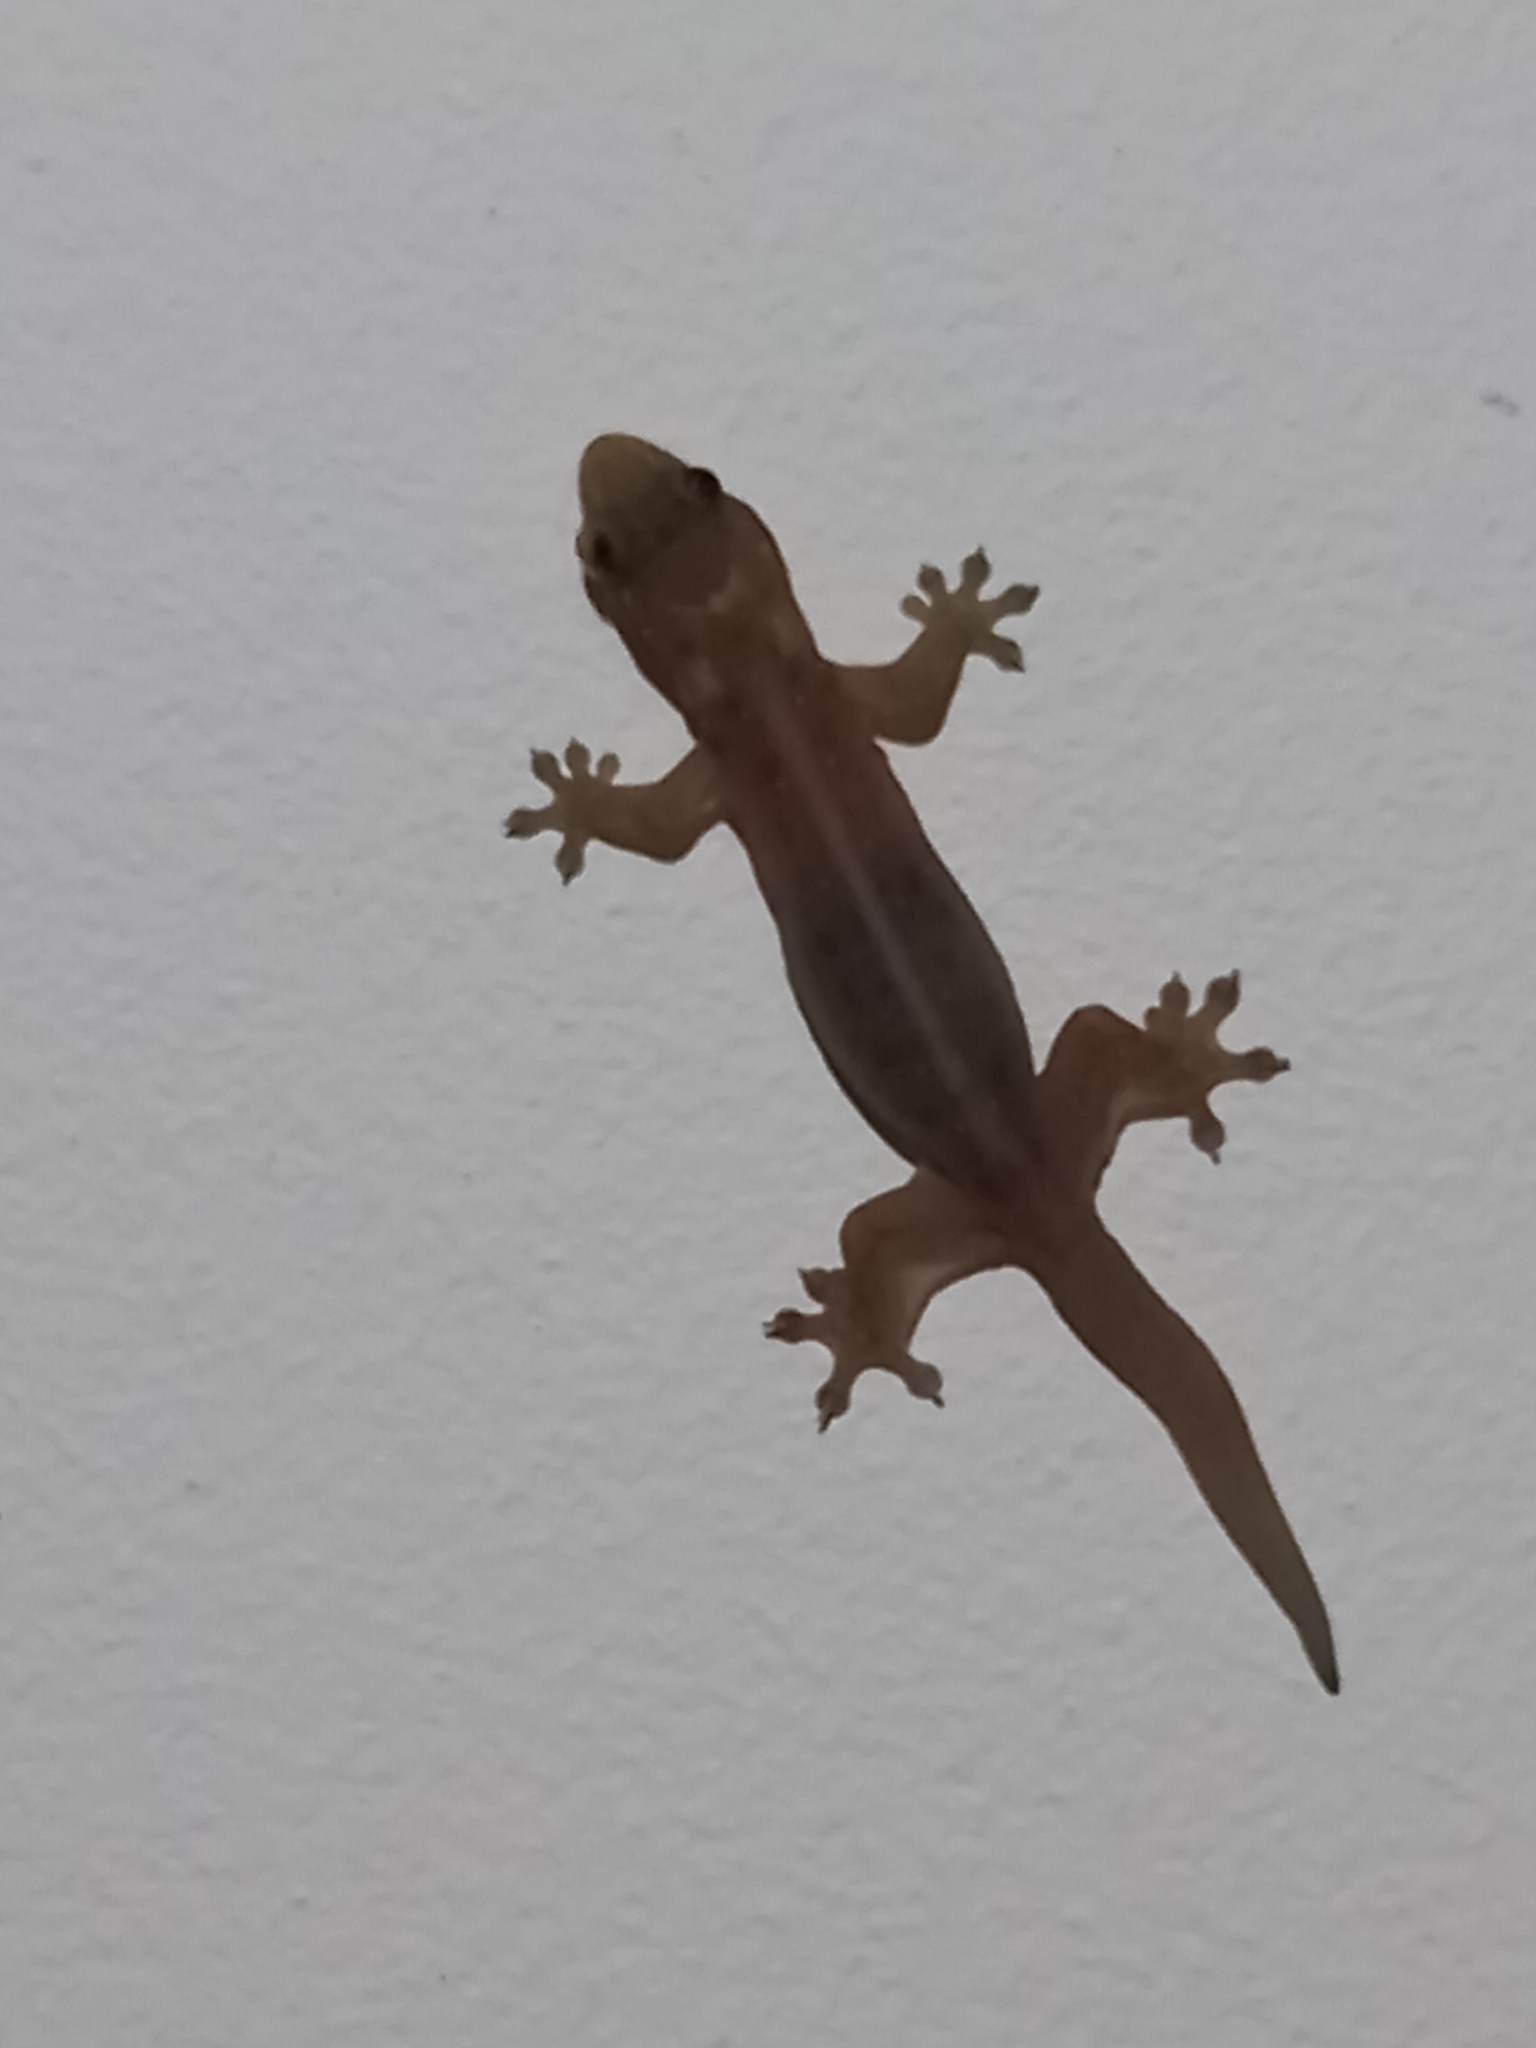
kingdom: Animalia
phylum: Chordata
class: Squamata
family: Gekkonidae
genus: Gehyra
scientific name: Gehyra mutilata
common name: Stump-toed gecko
